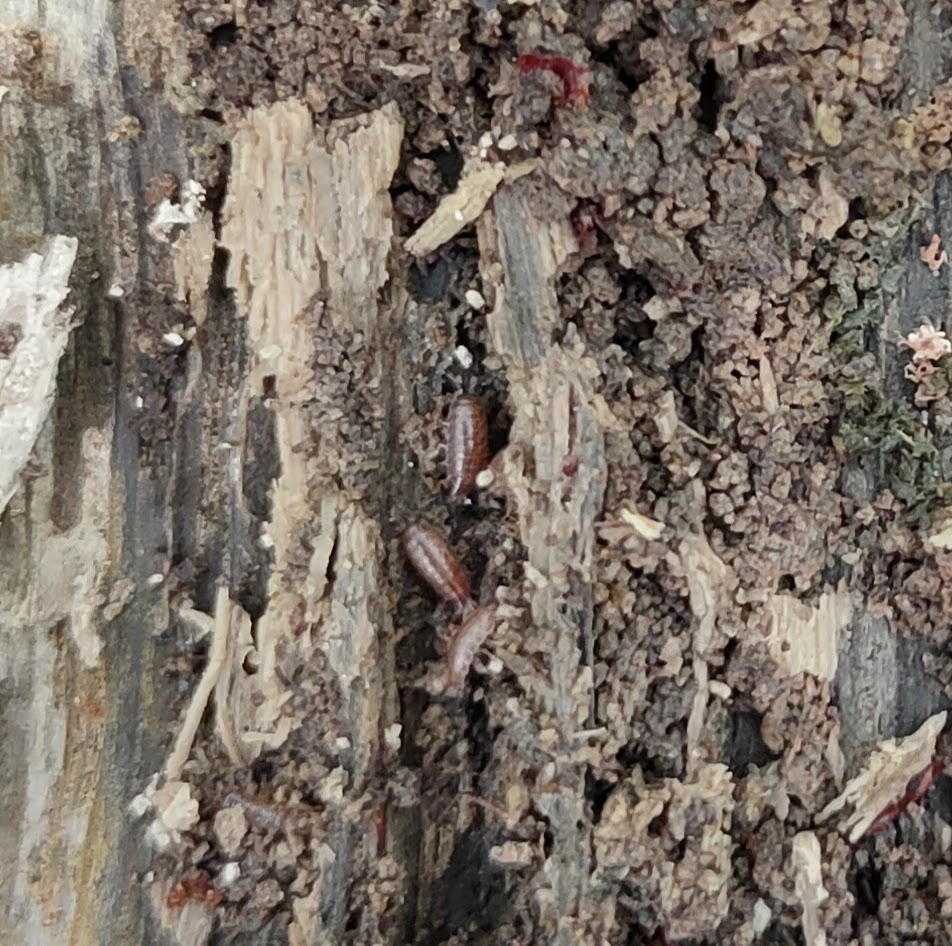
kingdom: Animalia
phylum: Arthropoda
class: Malacostraca
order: Isopoda
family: Trichoniscidae
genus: Trichoniscus
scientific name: Trichoniscus
